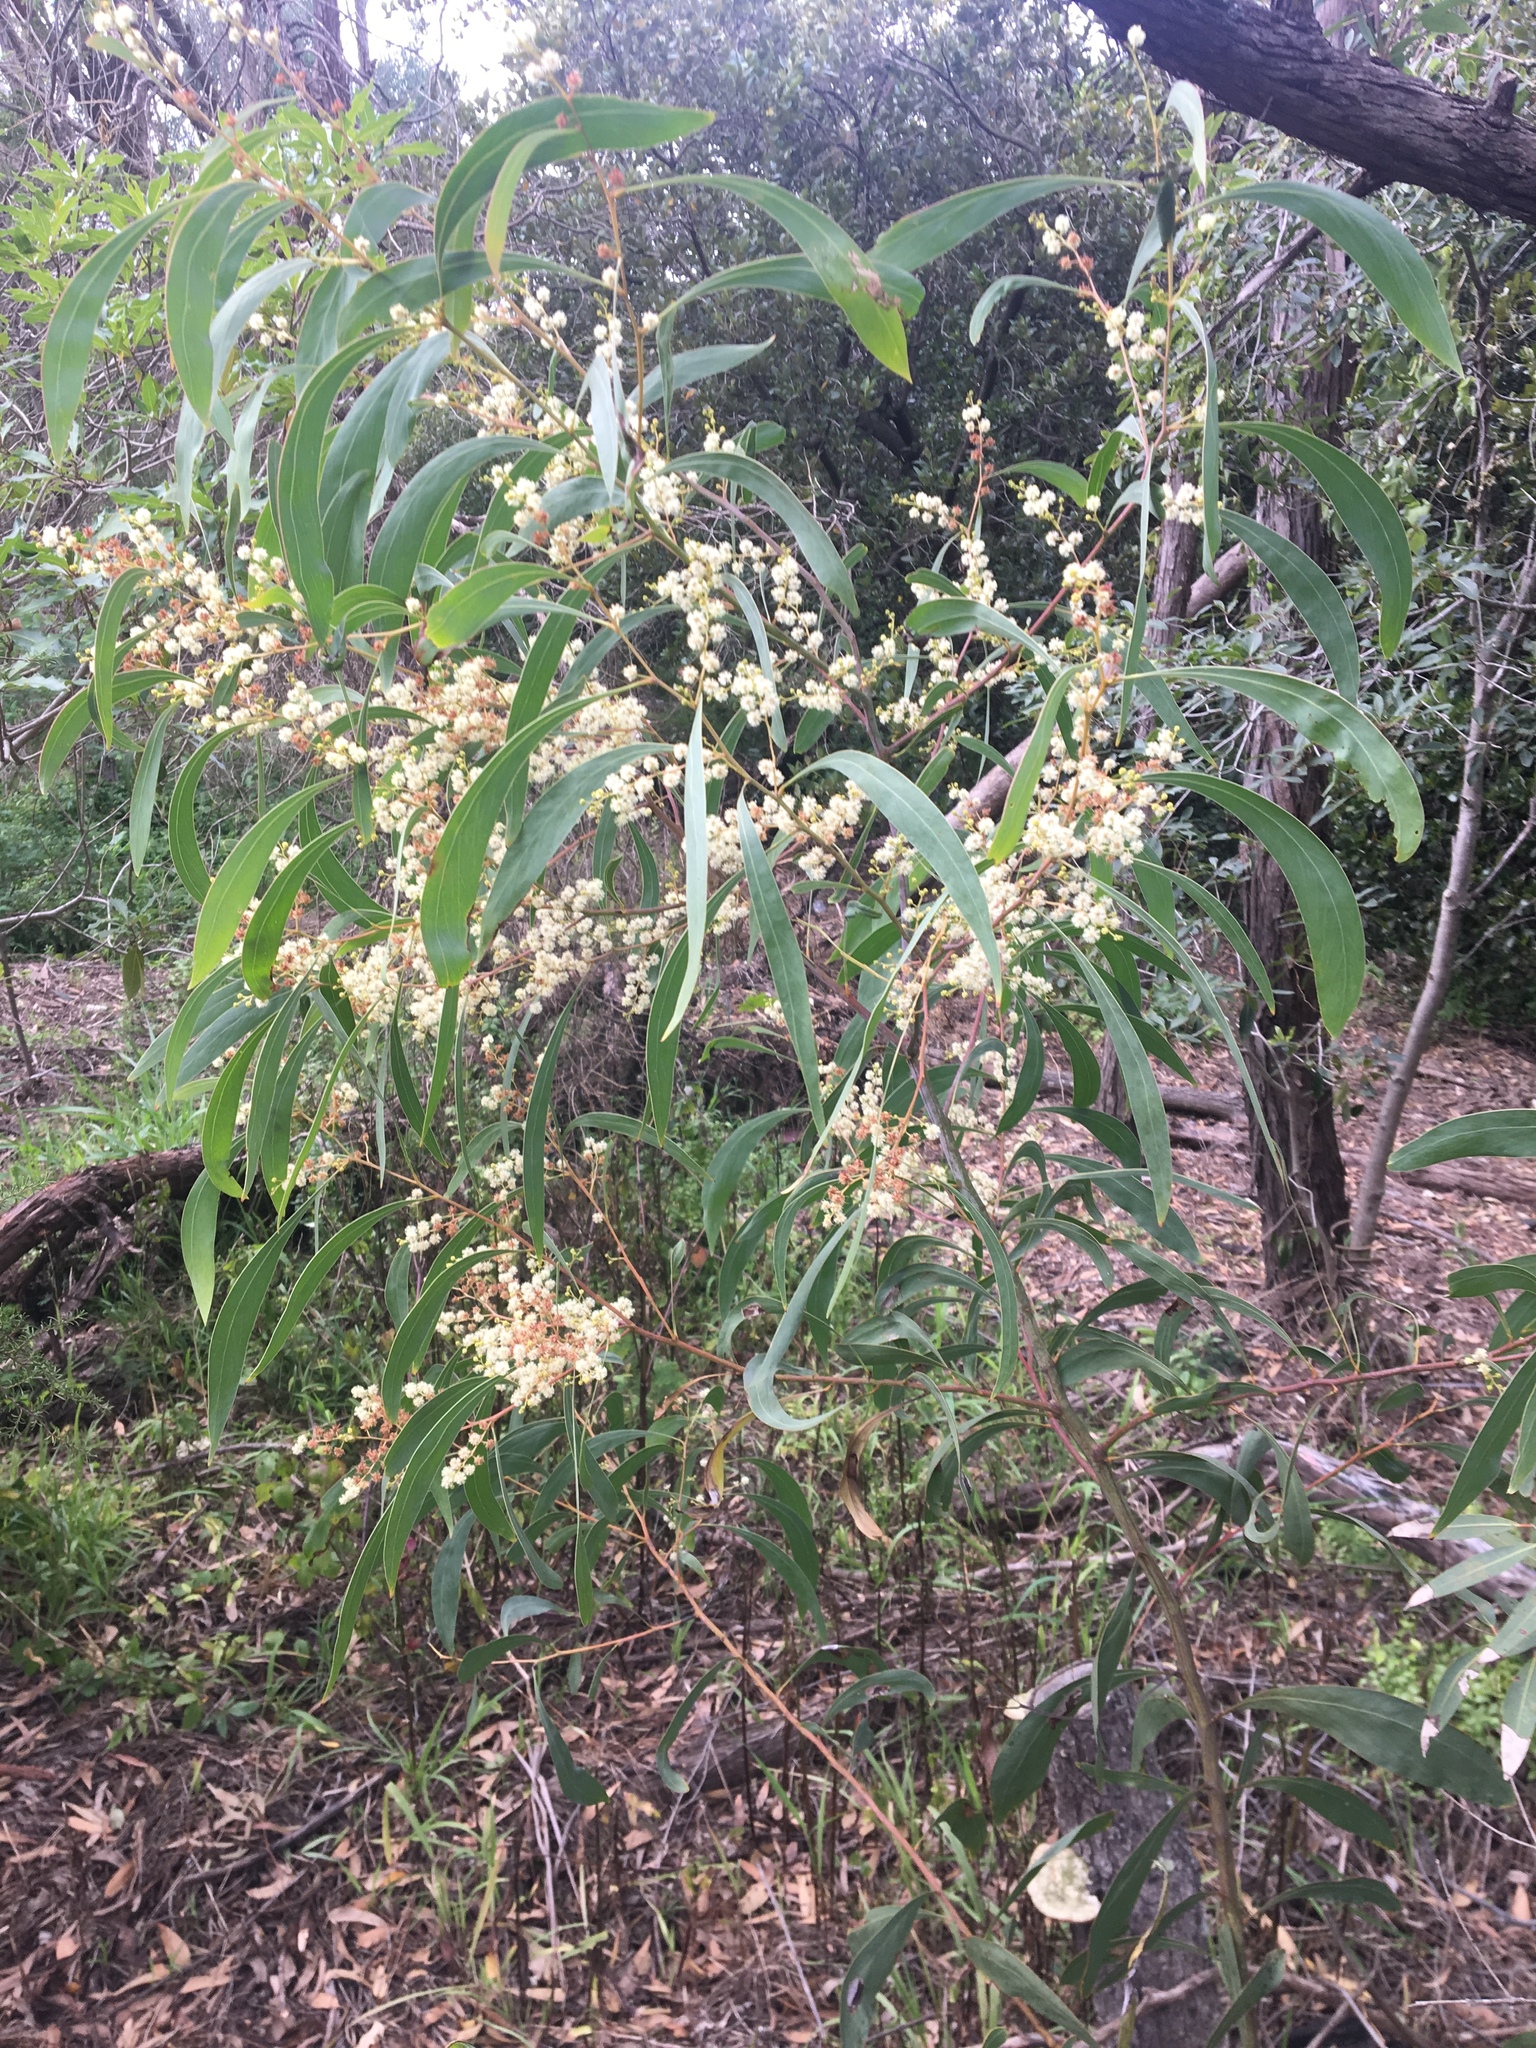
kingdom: Plantae
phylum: Tracheophyta
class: Magnoliopsida
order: Fabales
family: Fabaceae
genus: Acacia
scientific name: Acacia falcata
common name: Burra acacia
